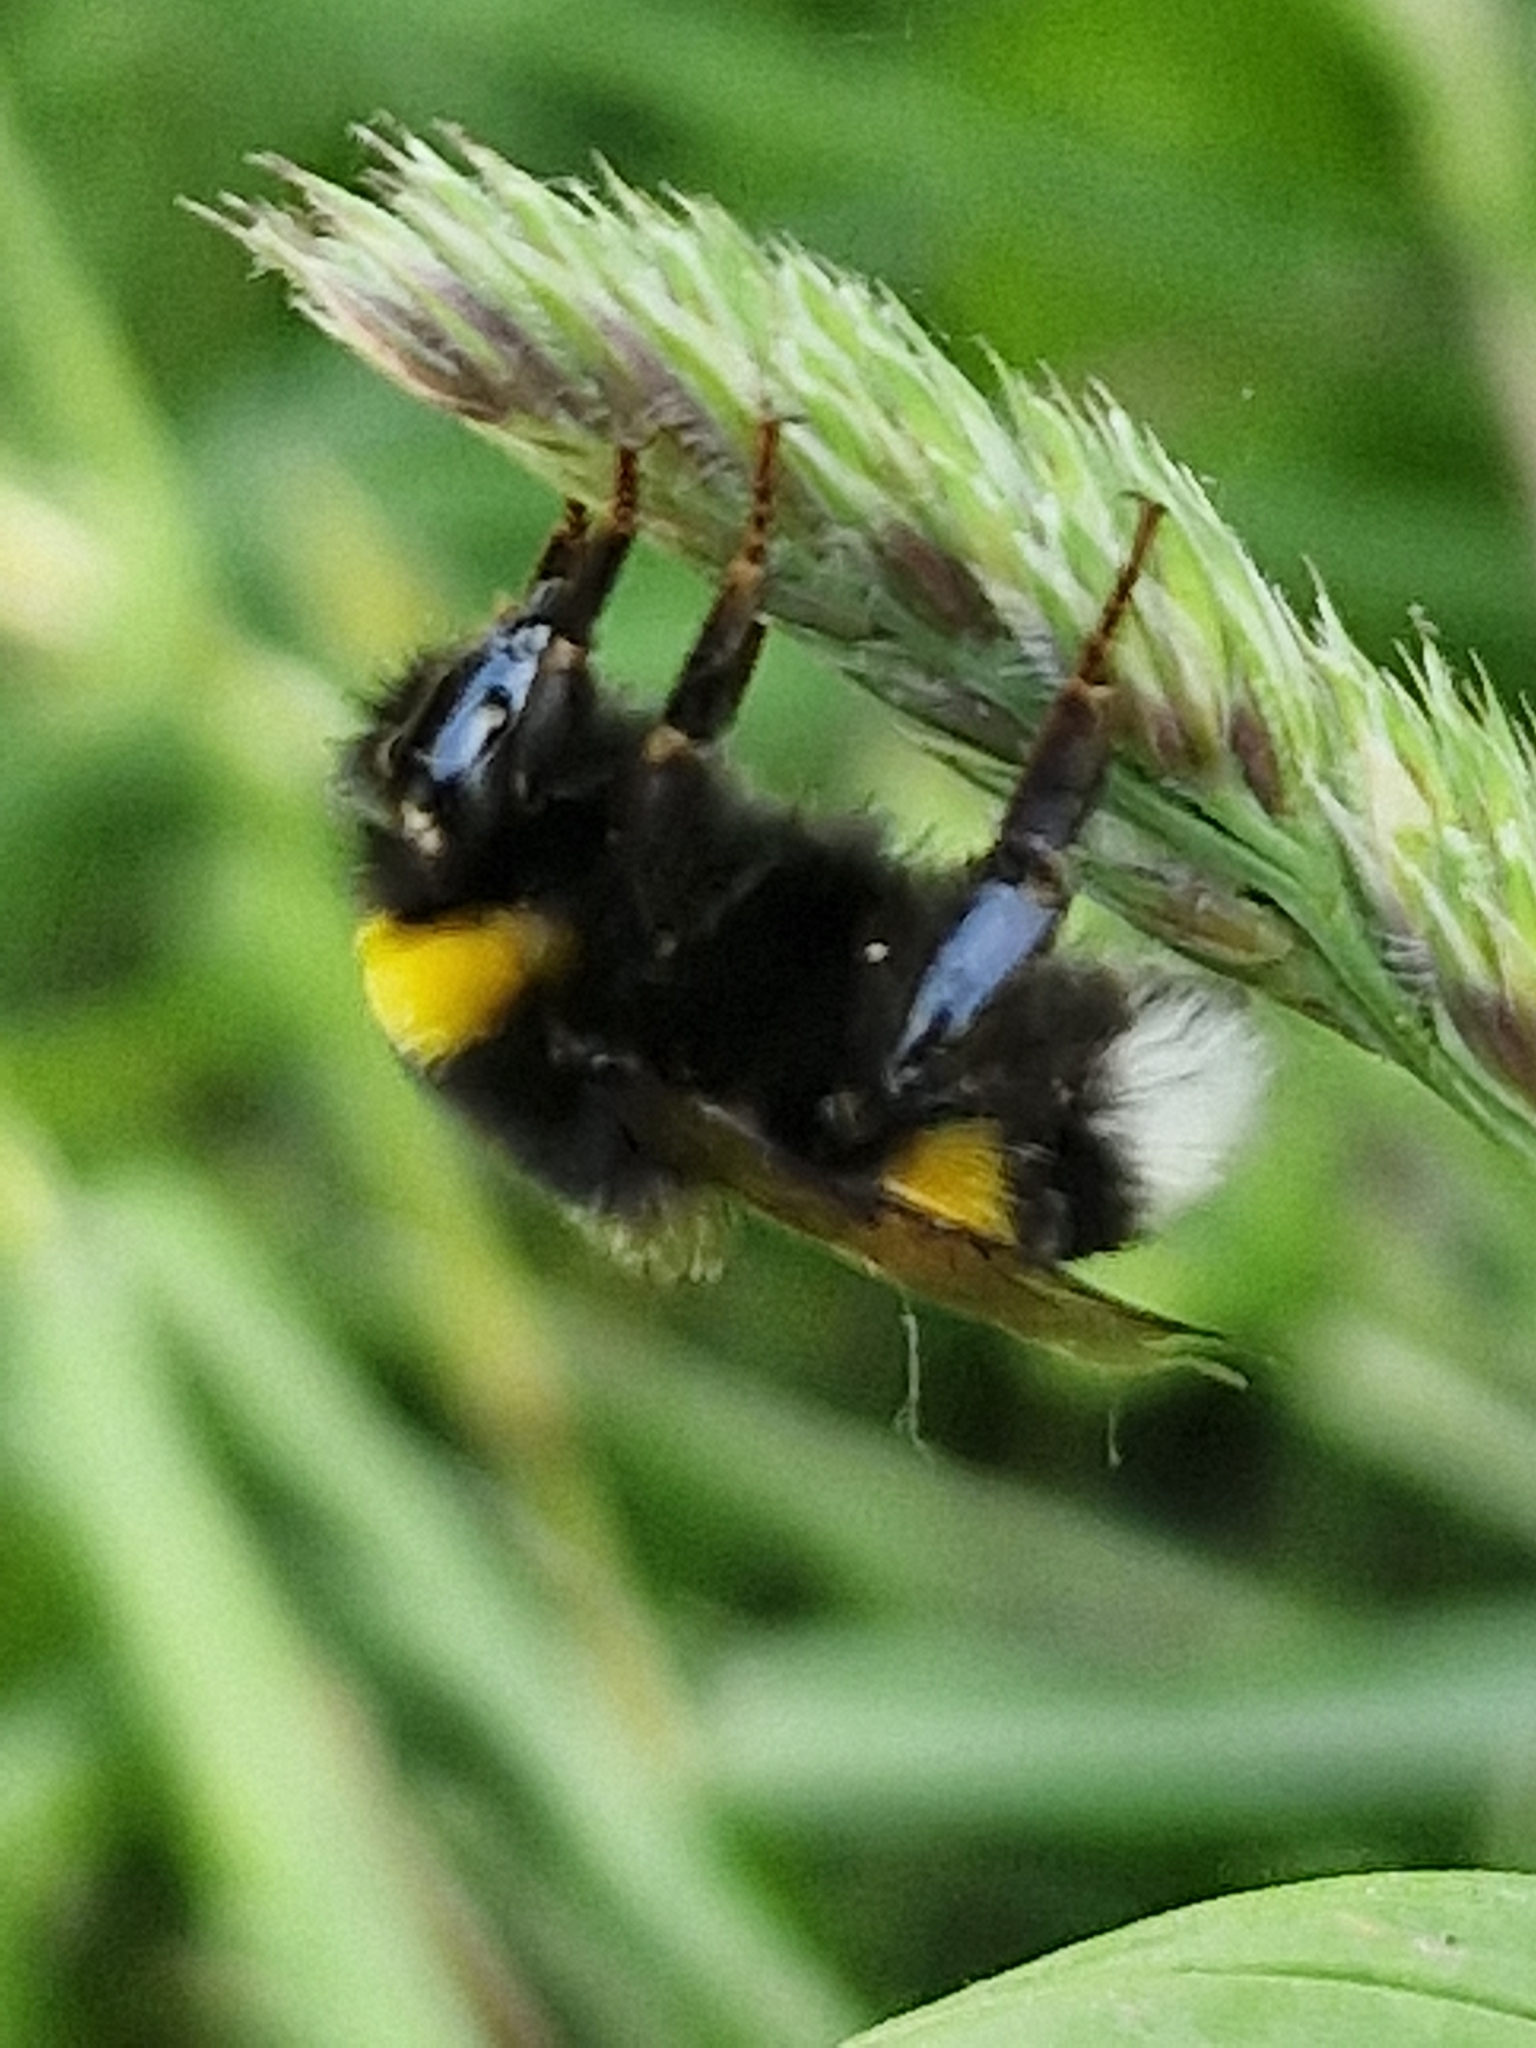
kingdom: Animalia
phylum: Arthropoda
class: Insecta
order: Hymenoptera
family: Apidae
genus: Bombus
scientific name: Bombus terrestris
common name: Buff-tailed bumblebee
